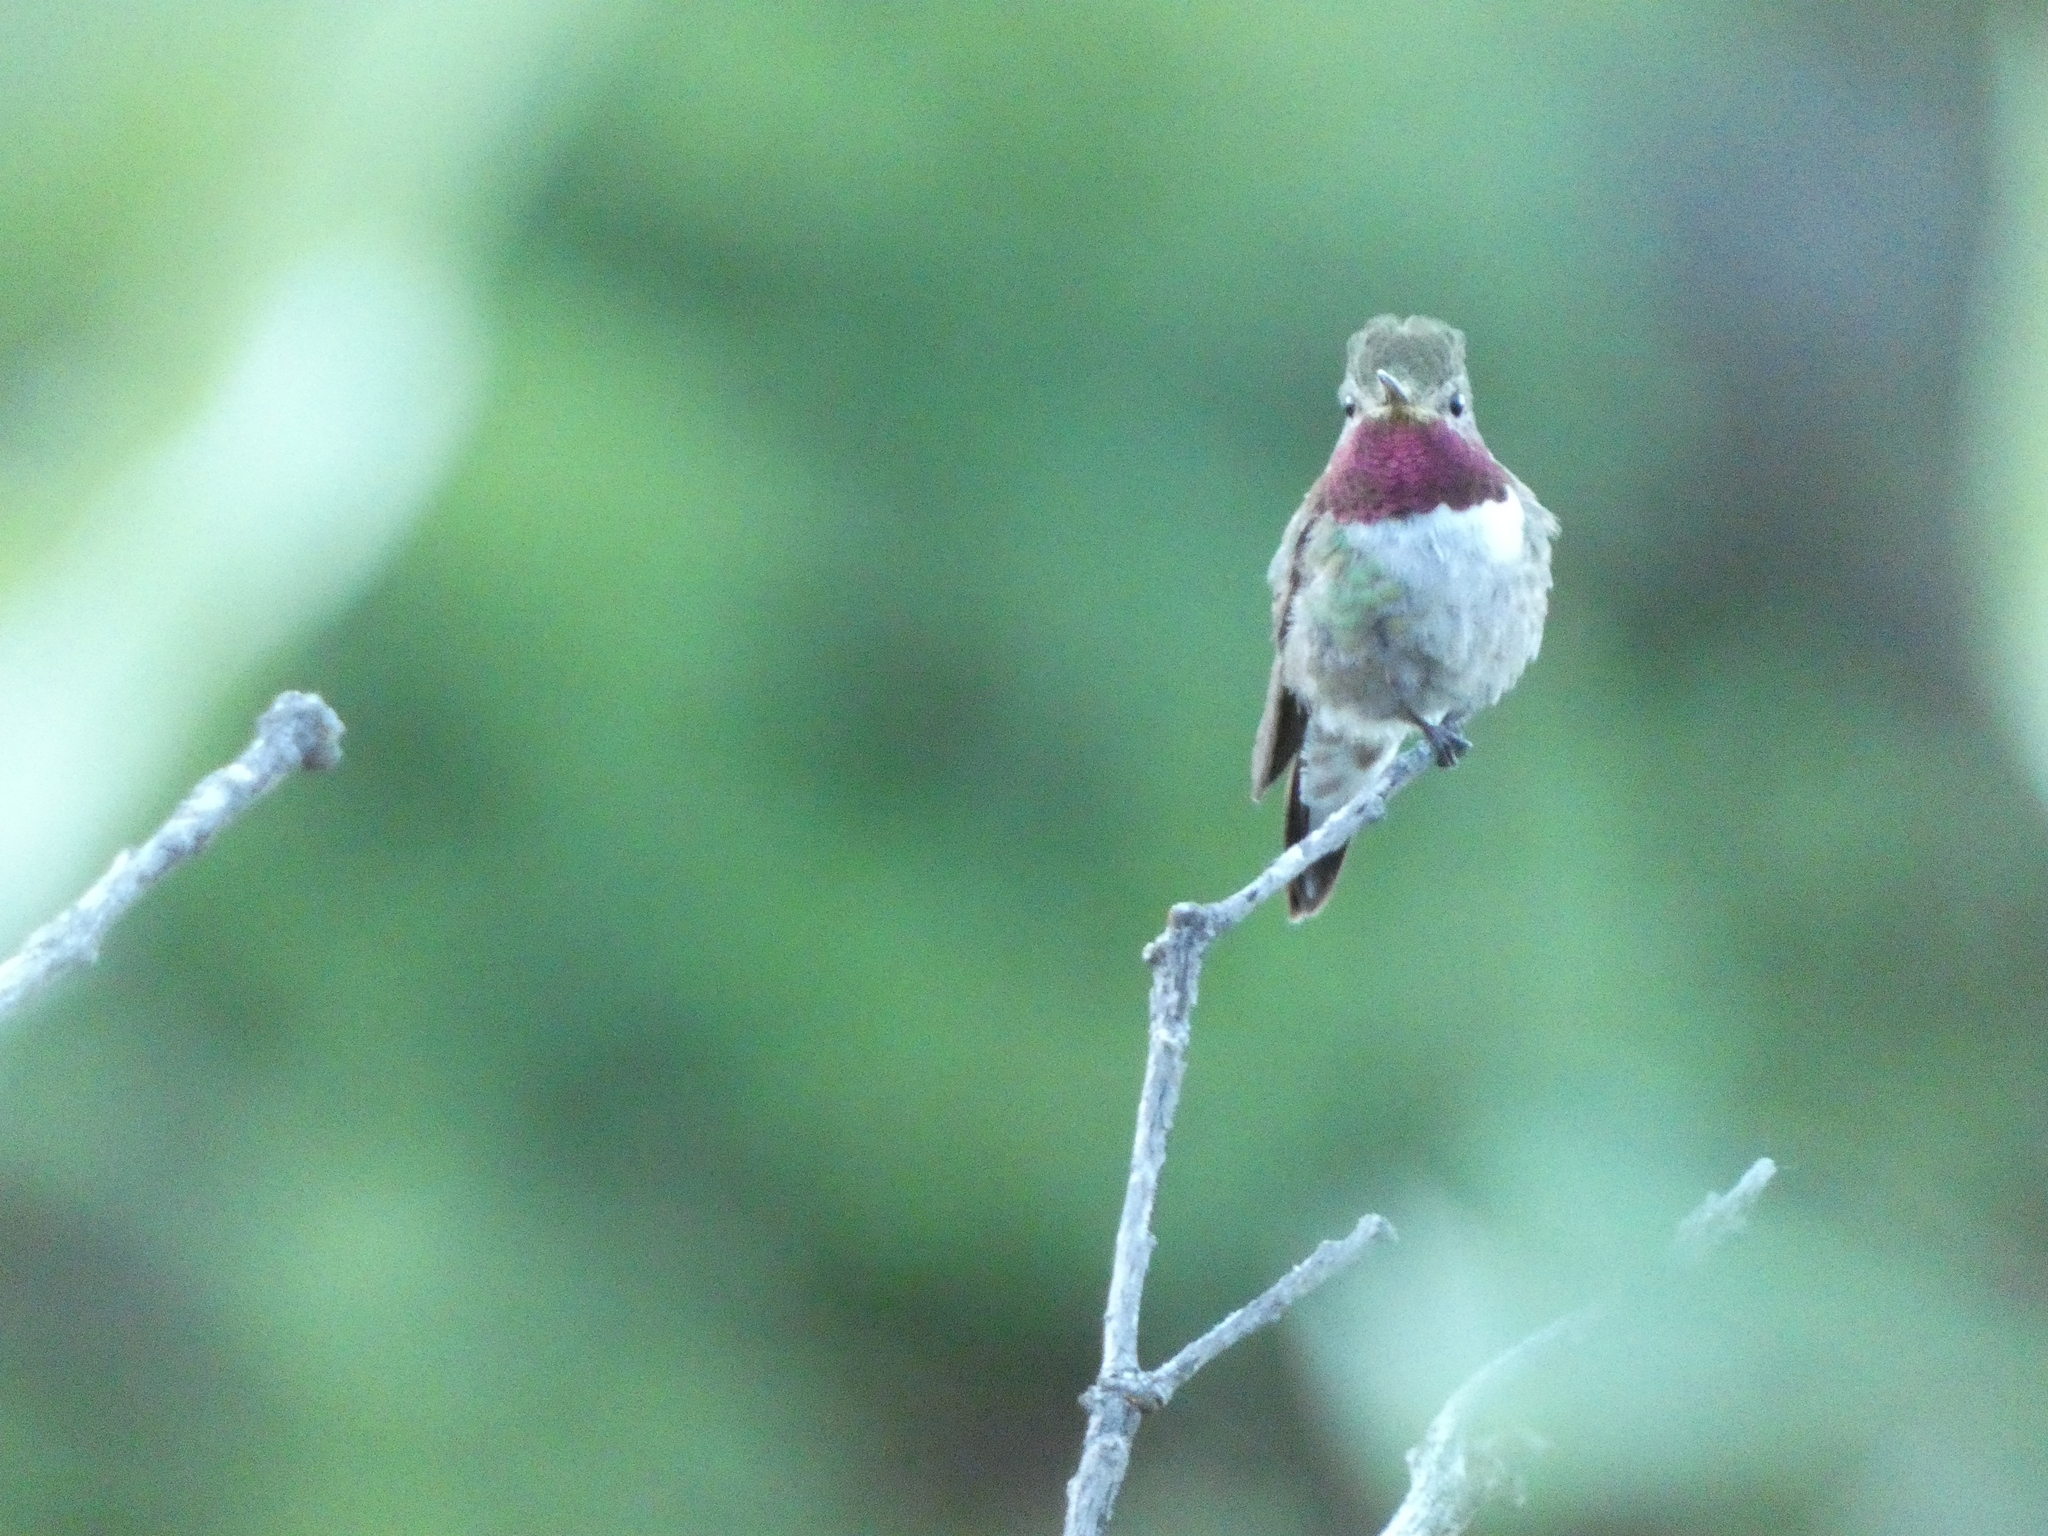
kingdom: Animalia
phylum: Chordata
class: Aves
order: Apodiformes
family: Trochilidae
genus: Selasphorus
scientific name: Selasphorus platycercus
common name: Broad-tailed hummingbird
